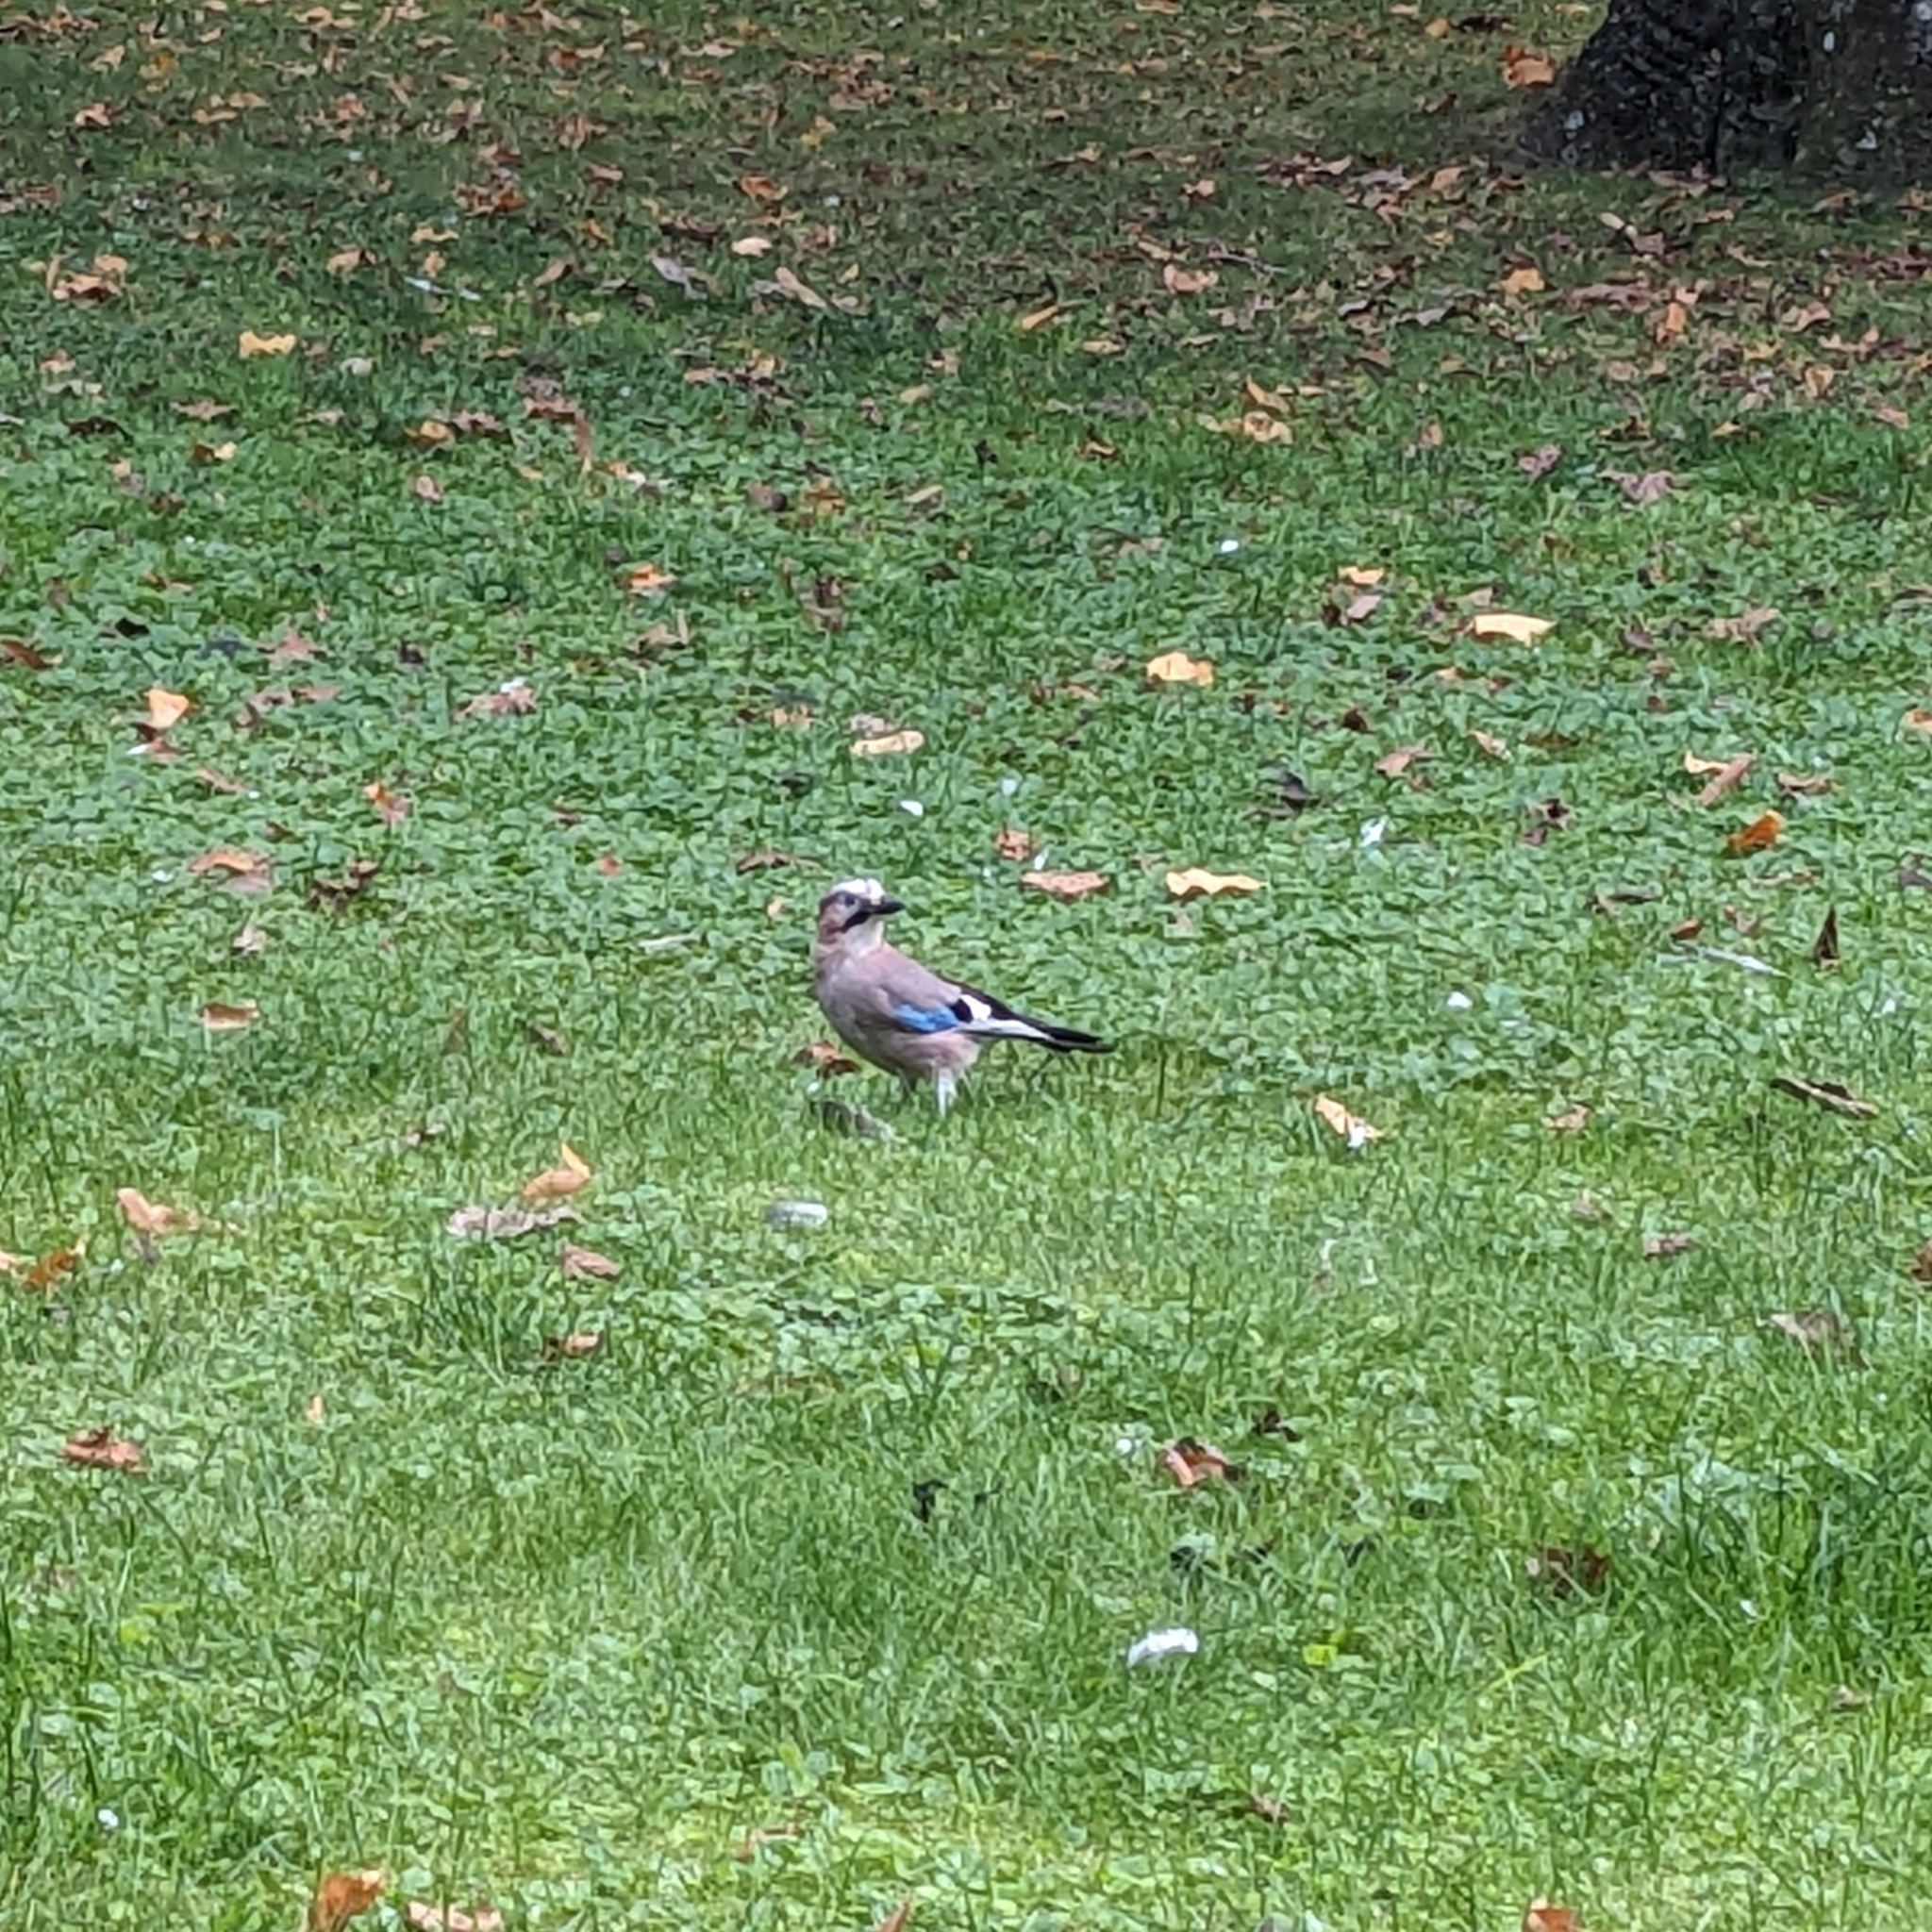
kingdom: Animalia
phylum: Chordata
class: Aves
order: Passeriformes
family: Corvidae
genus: Garrulus
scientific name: Garrulus glandarius
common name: Eurasian jay
